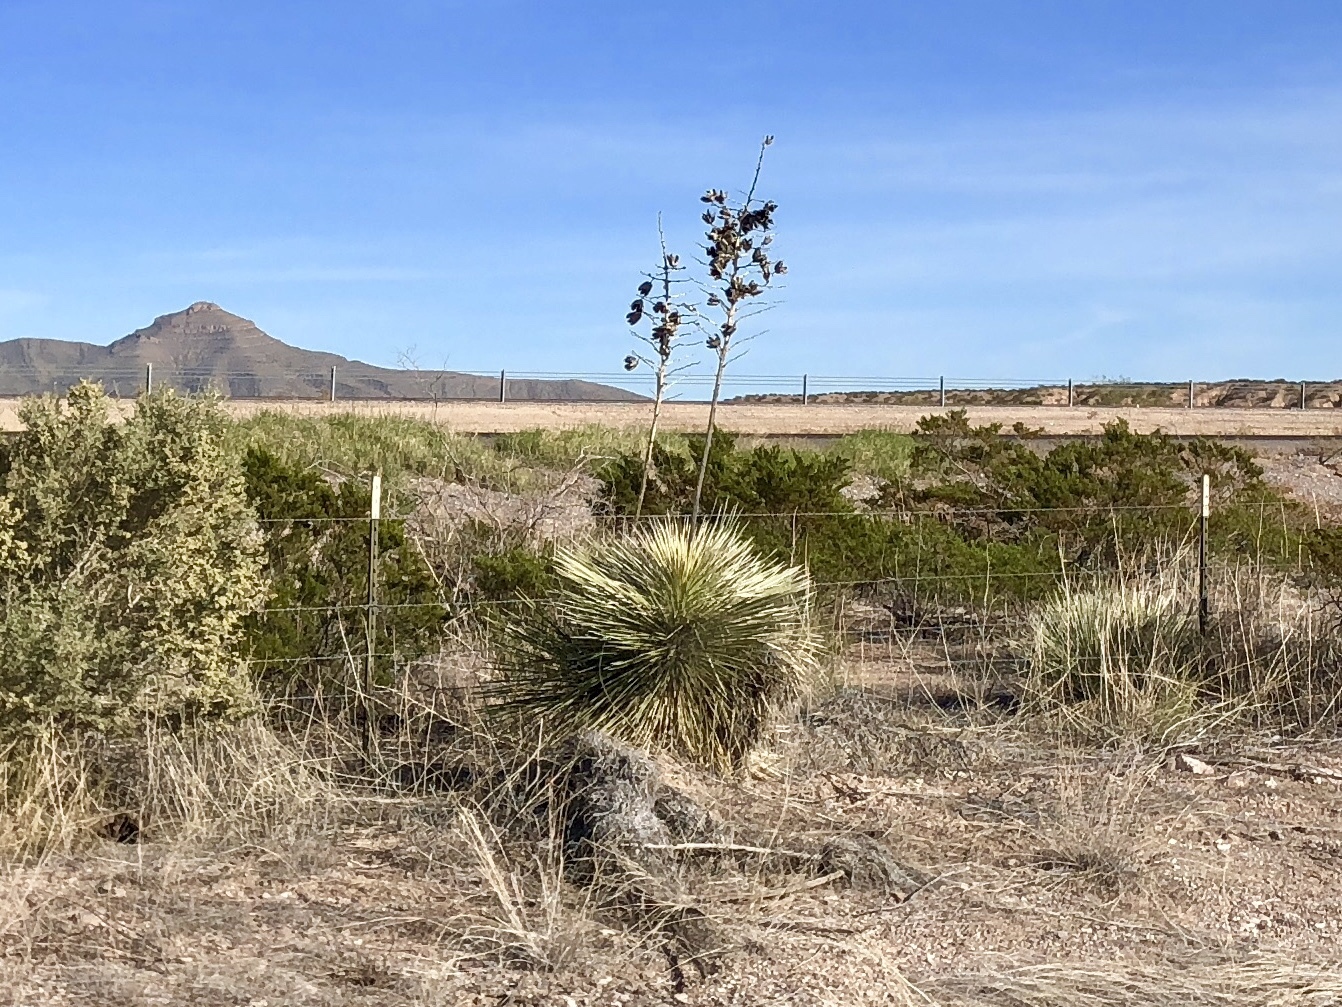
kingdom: Plantae
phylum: Tracheophyta
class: Liliopsida
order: Asparagales
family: Asparagaceae
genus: Yucca
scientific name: Yucca elata
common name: Palmella
